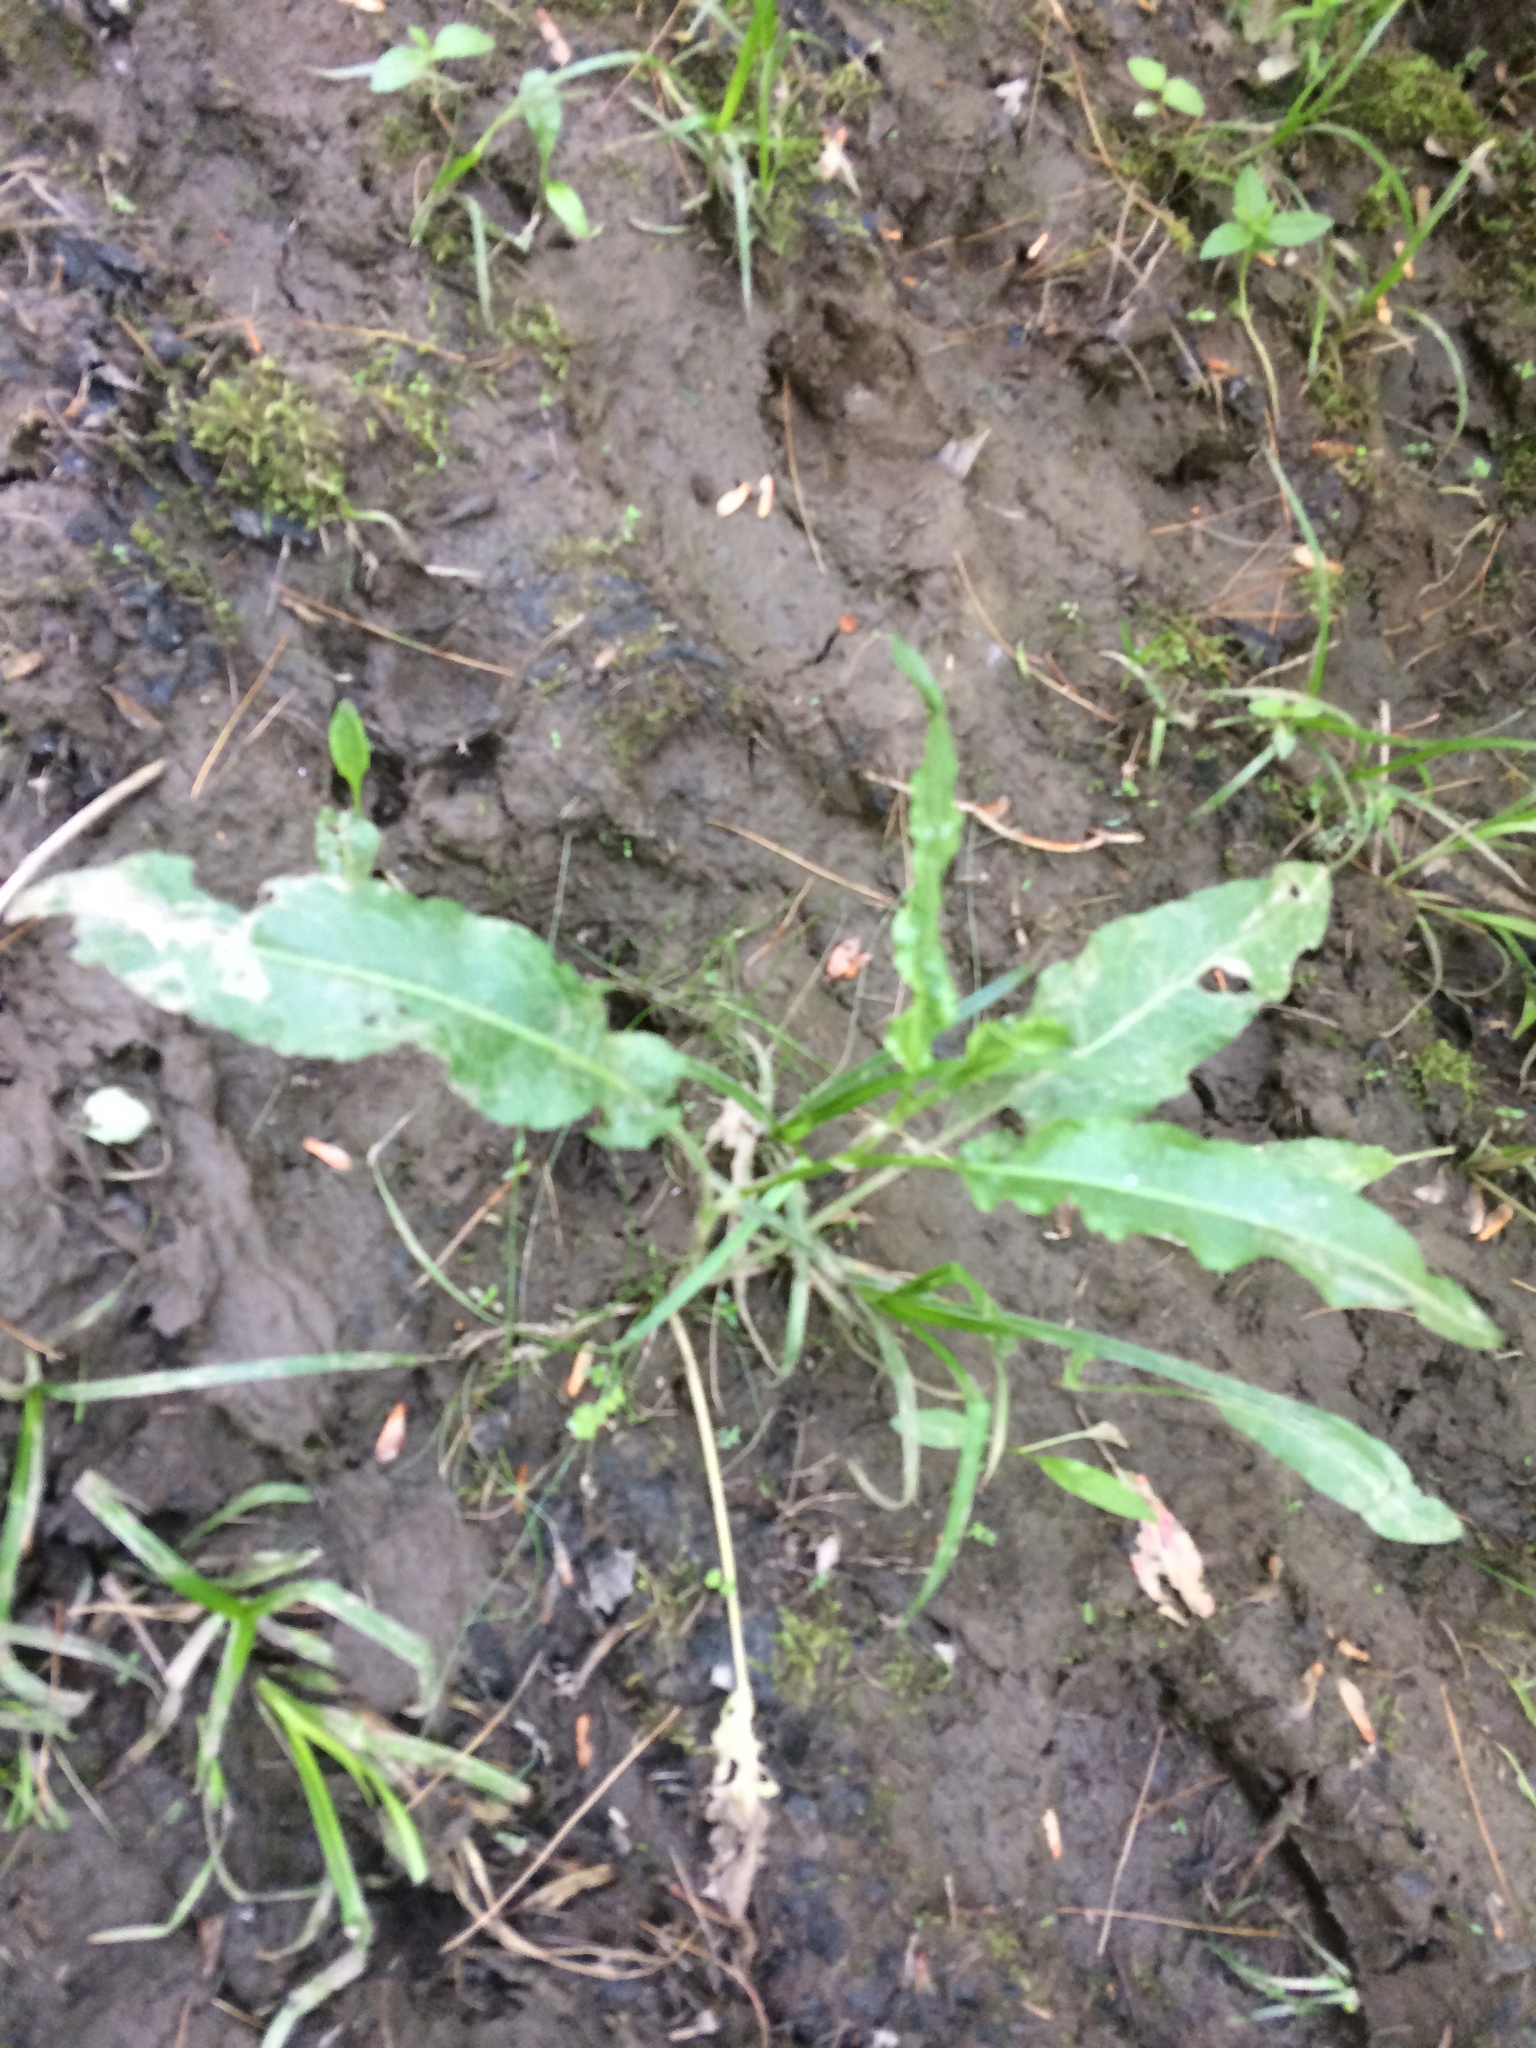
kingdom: Plantae
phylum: Tracheophyta
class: Magnoliopsida
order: Caryophyllales
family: Polygonaceae
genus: Rumex
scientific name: Rumex crispus
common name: Curled dock
